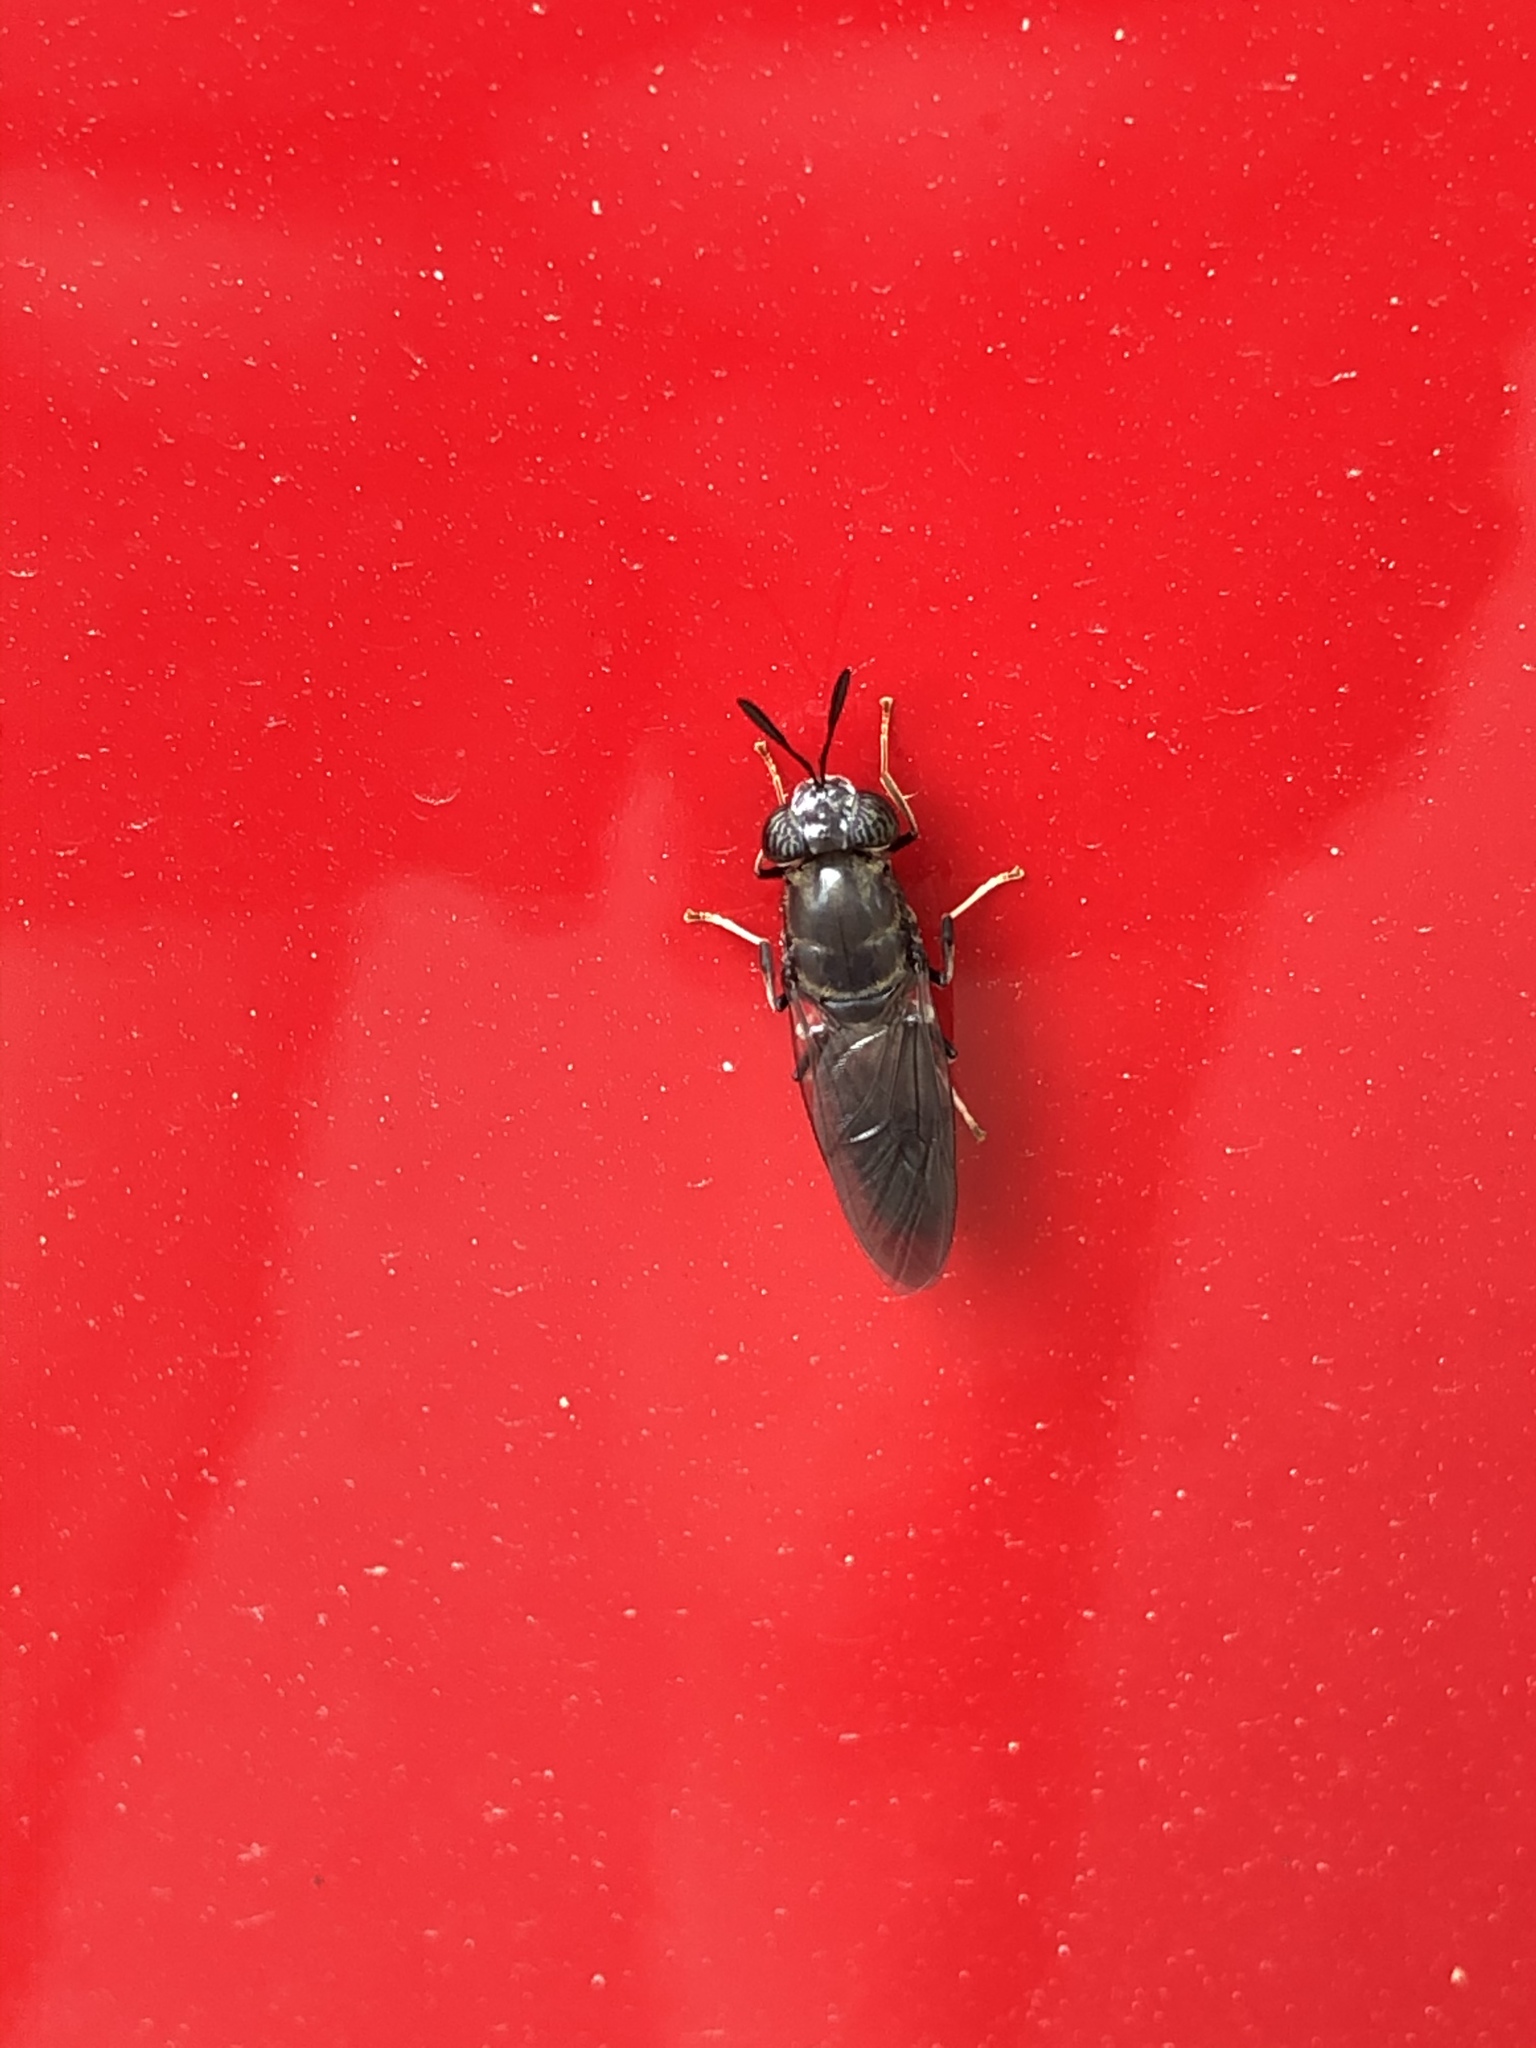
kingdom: Animalia
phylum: Arthropoda
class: Insecta
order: Diptera
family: Stratiomyidae
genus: Hermetia
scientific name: Hermetia illucens
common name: Black soldier fly
